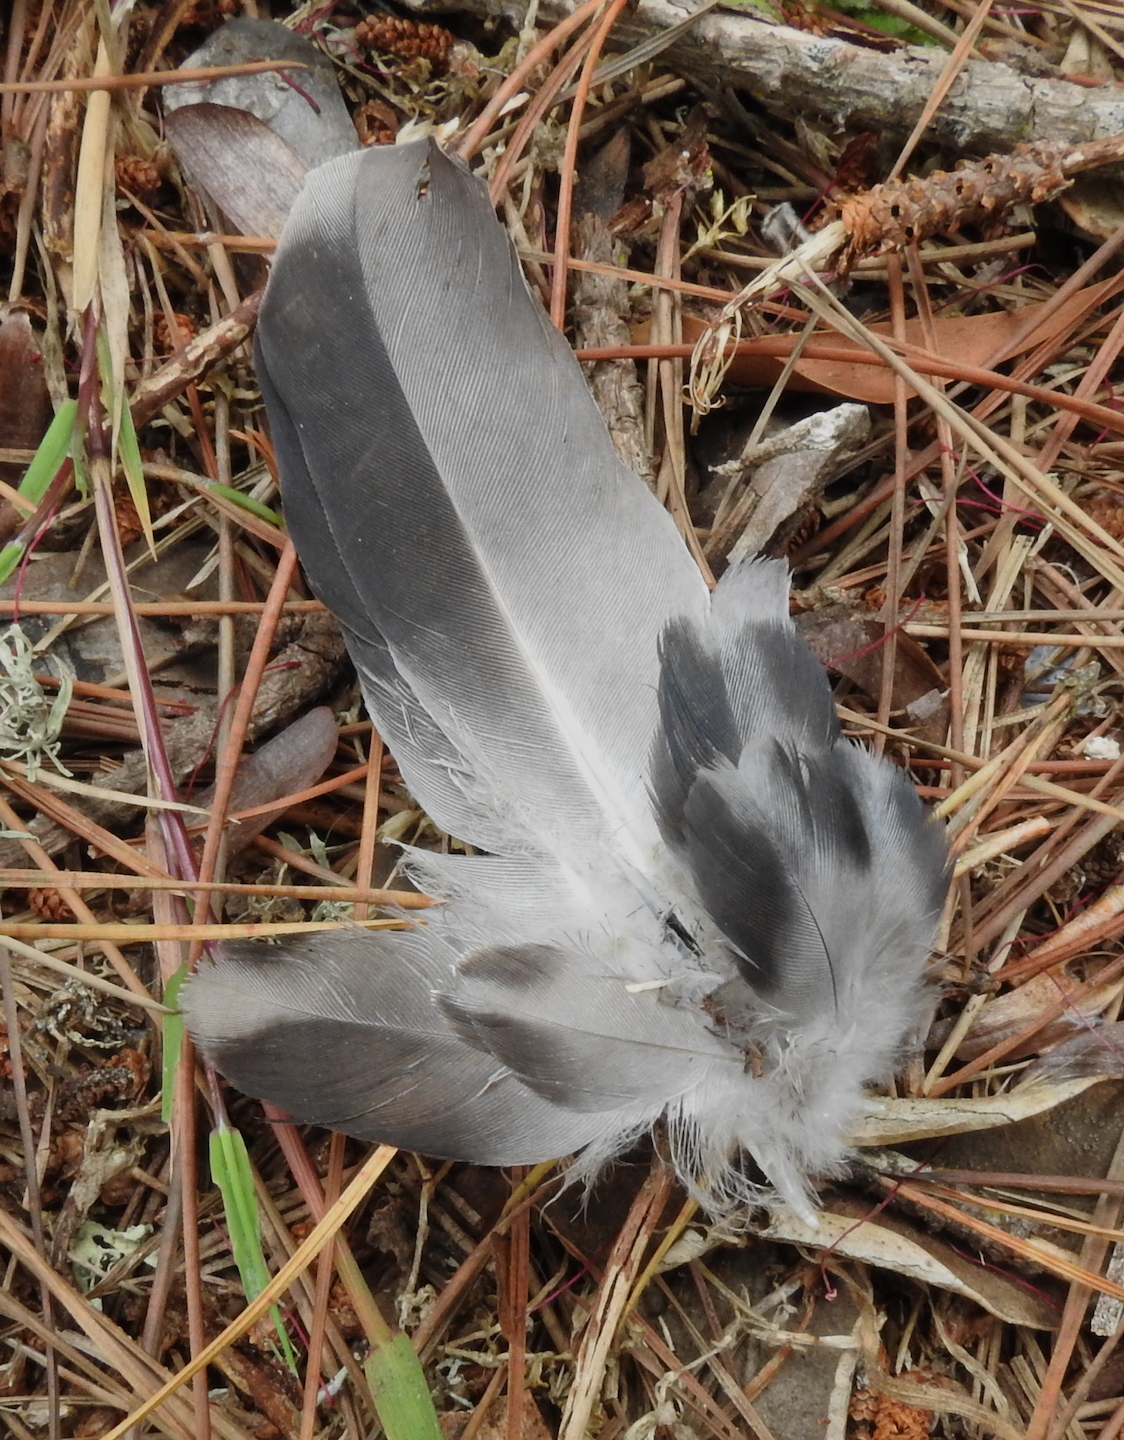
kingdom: Animalia
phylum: Chordata
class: Aves
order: Columbiformes
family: Columbidae
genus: Columba
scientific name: Columba livia
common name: Rock pigeon
